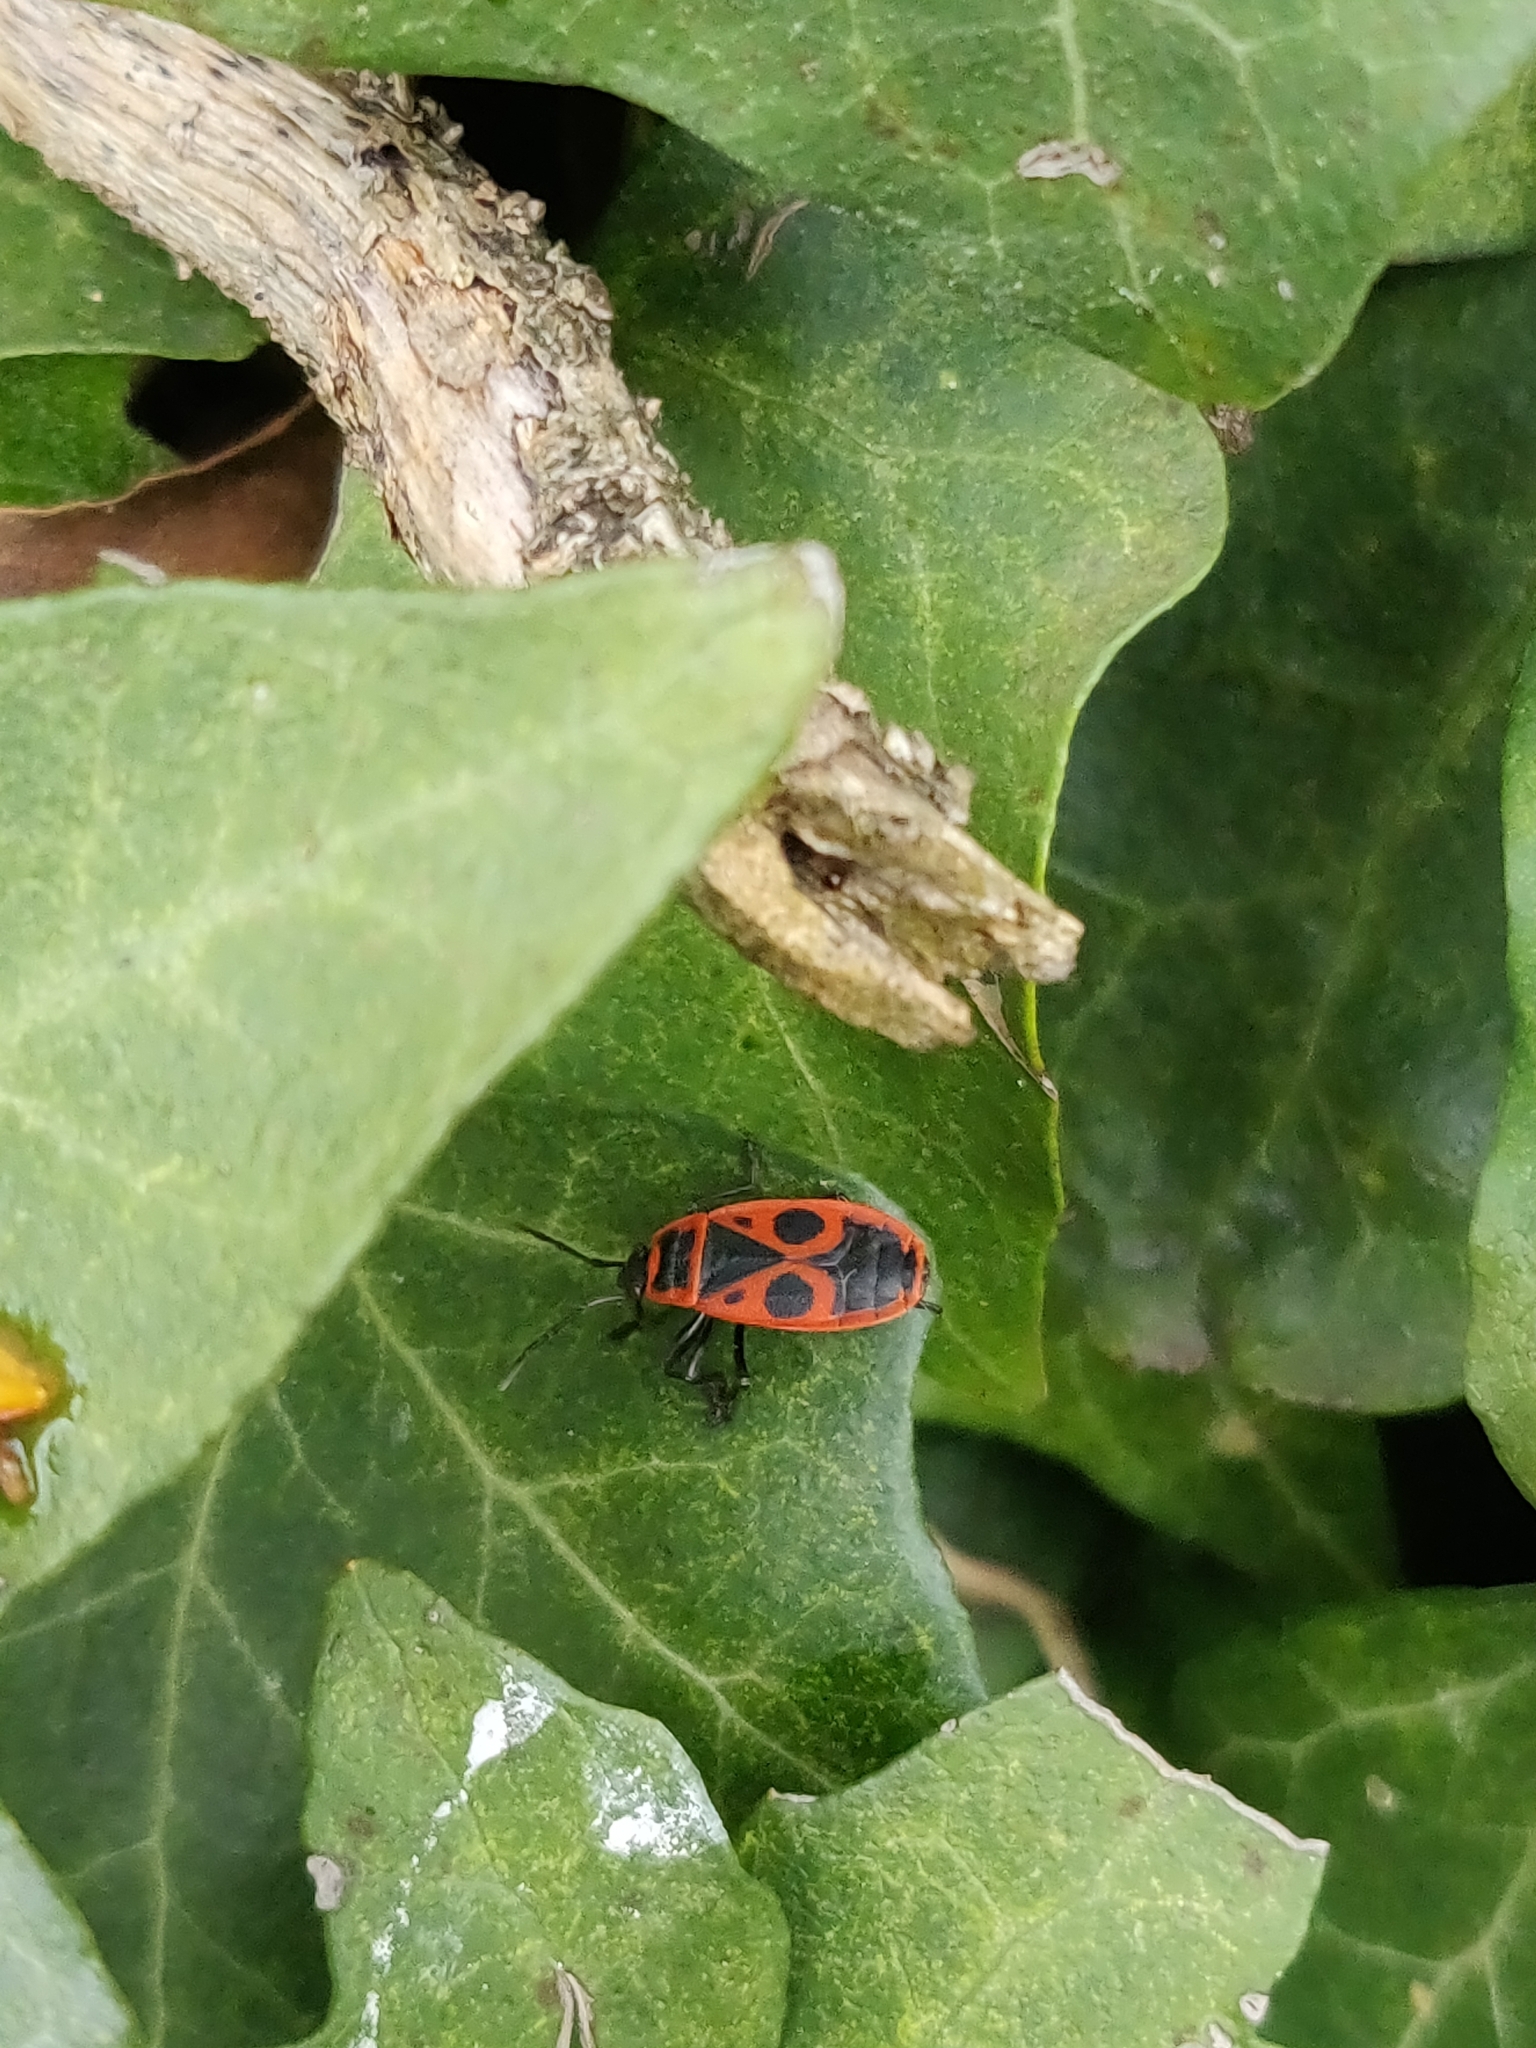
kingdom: Animalia
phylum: Arthropoda
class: Insecta
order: Hemiptera
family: Pyrrhocoridae
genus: Pyrrhocoris
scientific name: Pyrrhocoris apterus
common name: Firebug
